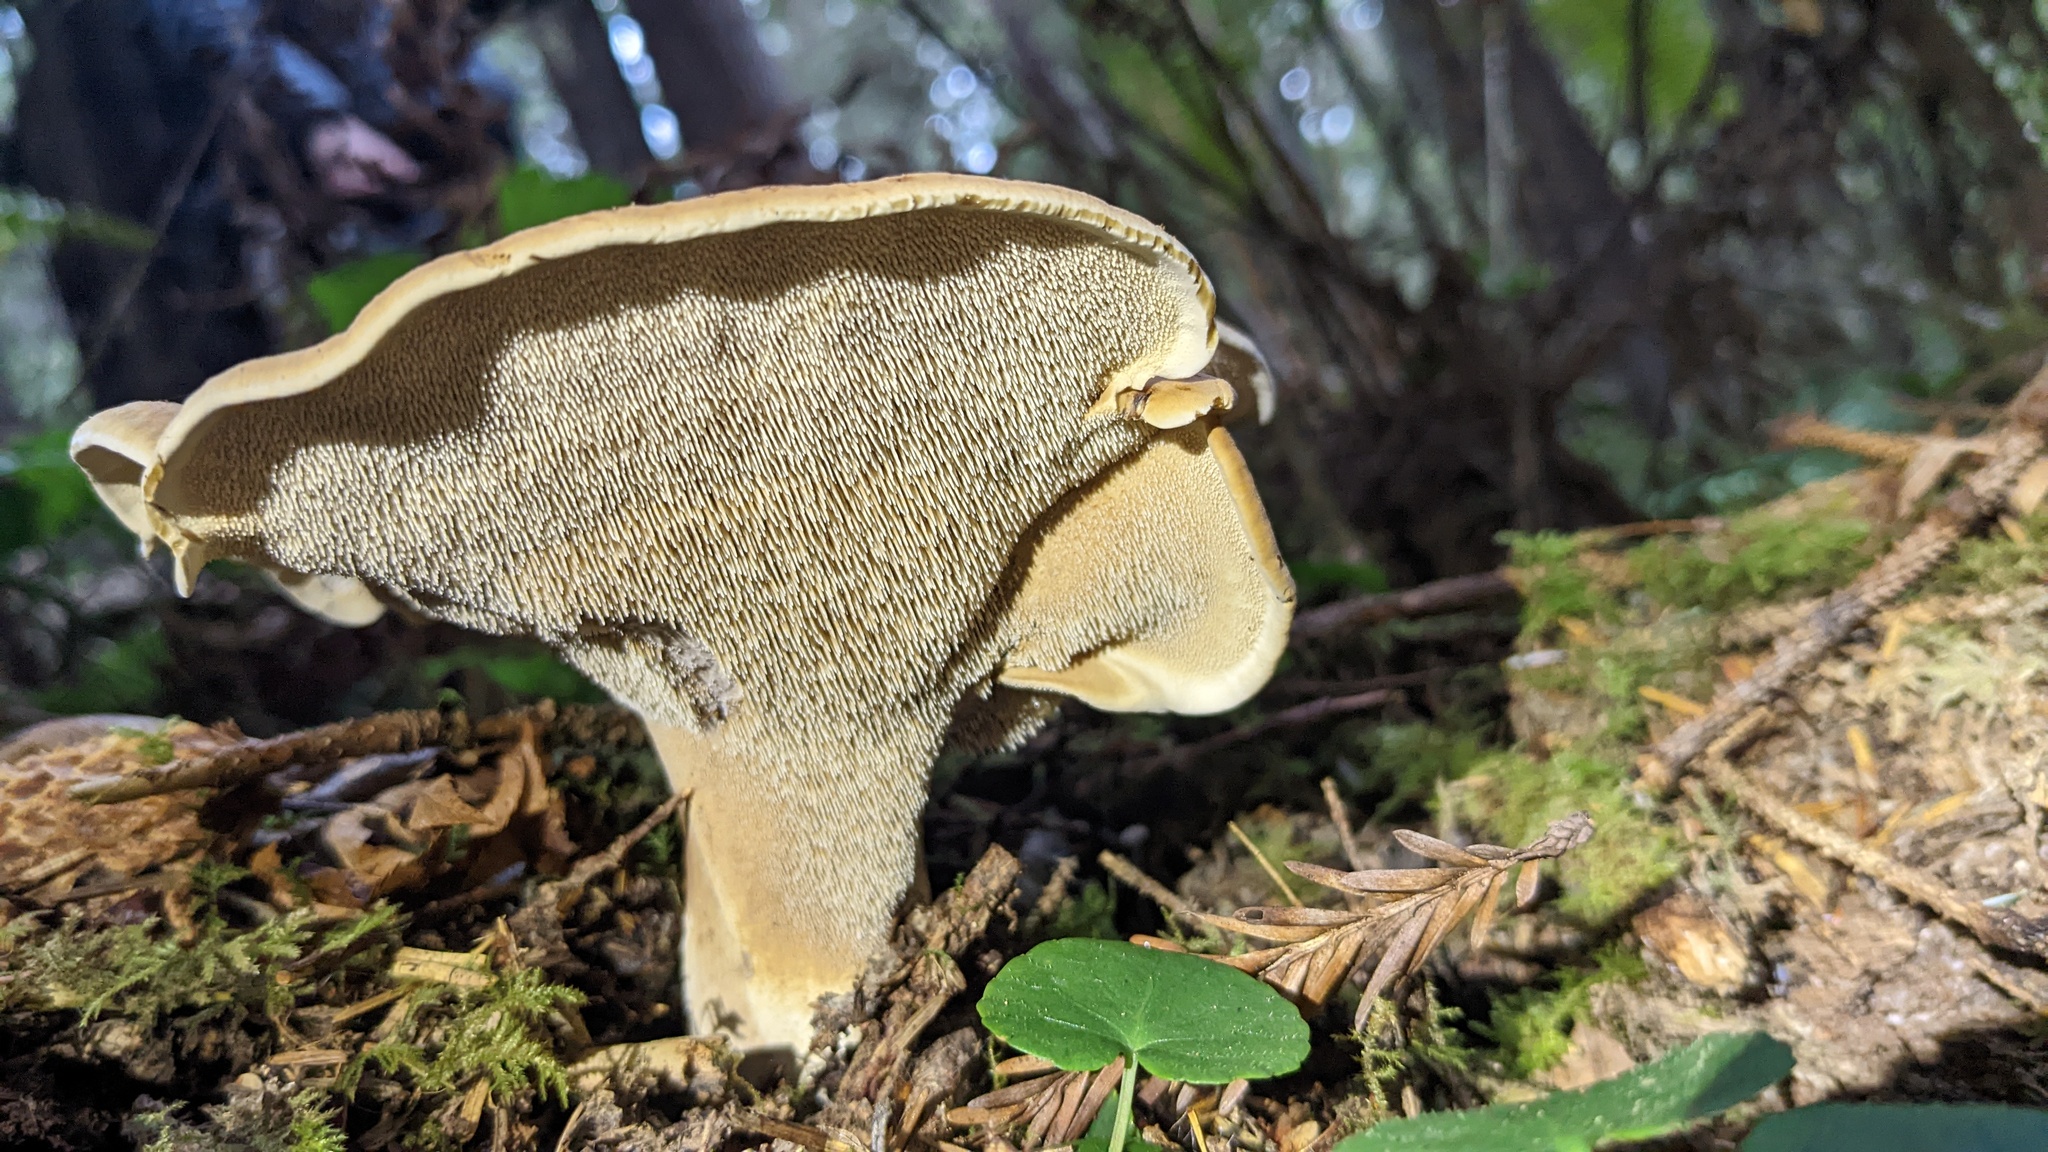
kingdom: Fungi
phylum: Basidiomycota
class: Agaricomycetes
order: Thelephorales
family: Bankeraceae
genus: Sarcodon
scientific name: Sarcodon stereosarcinon
